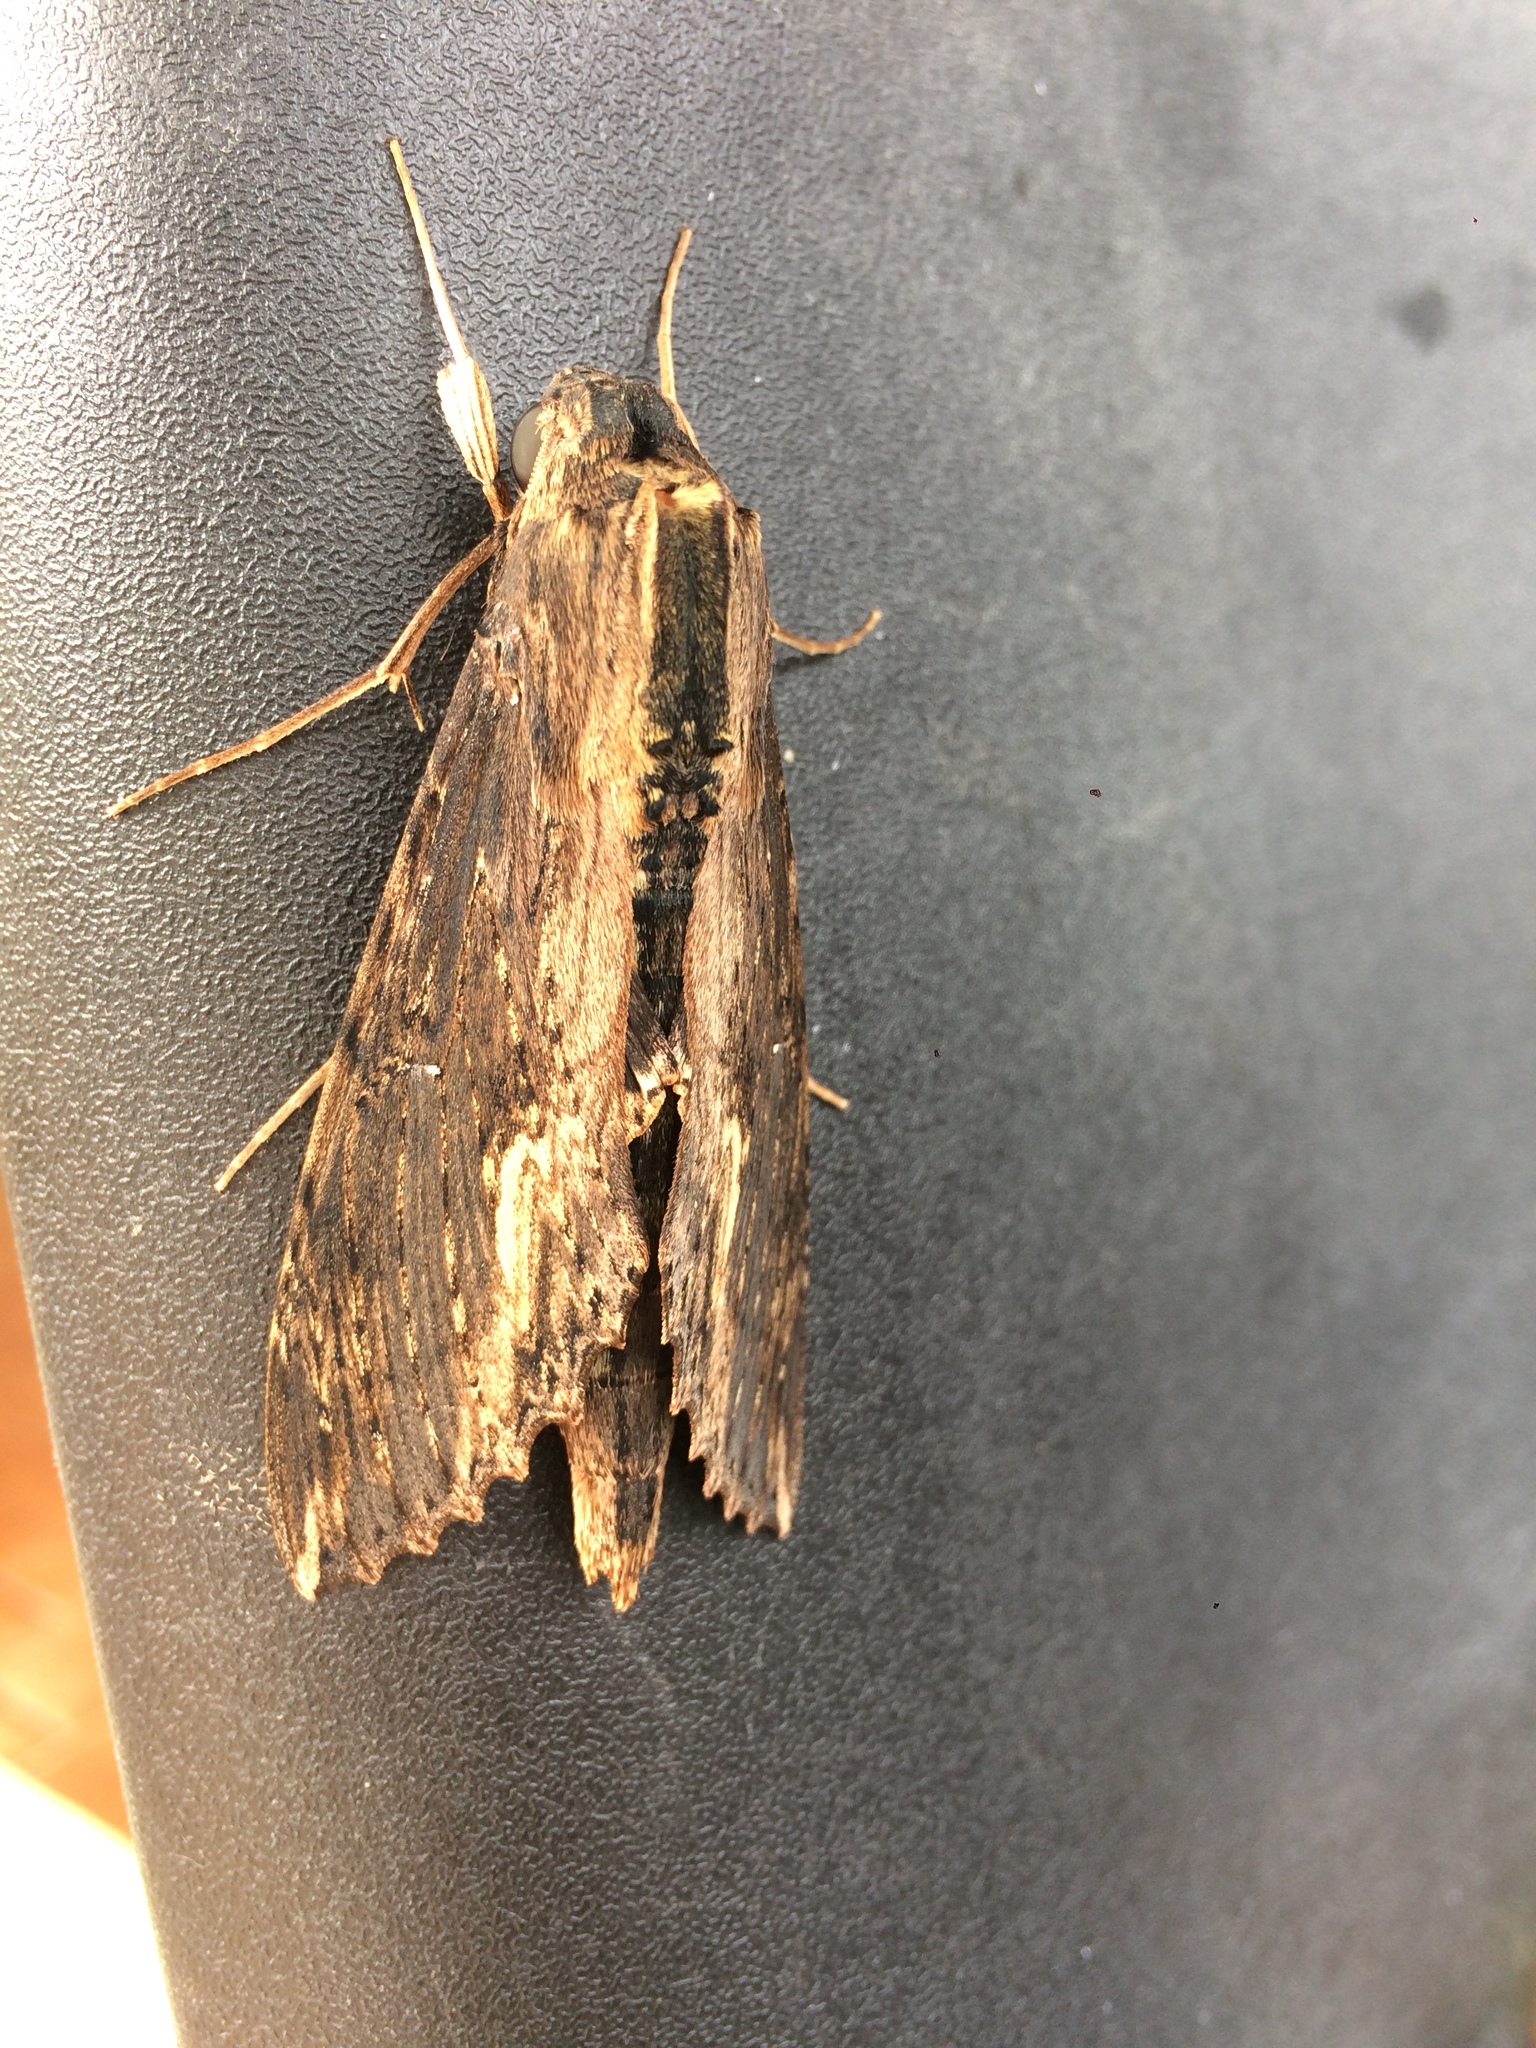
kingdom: Animalia
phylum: Arthropoda
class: Insecta
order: Lepidoptera
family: Sphingidae
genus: Erinnyis
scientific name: Erinnyis alope
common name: Alope sphinx
